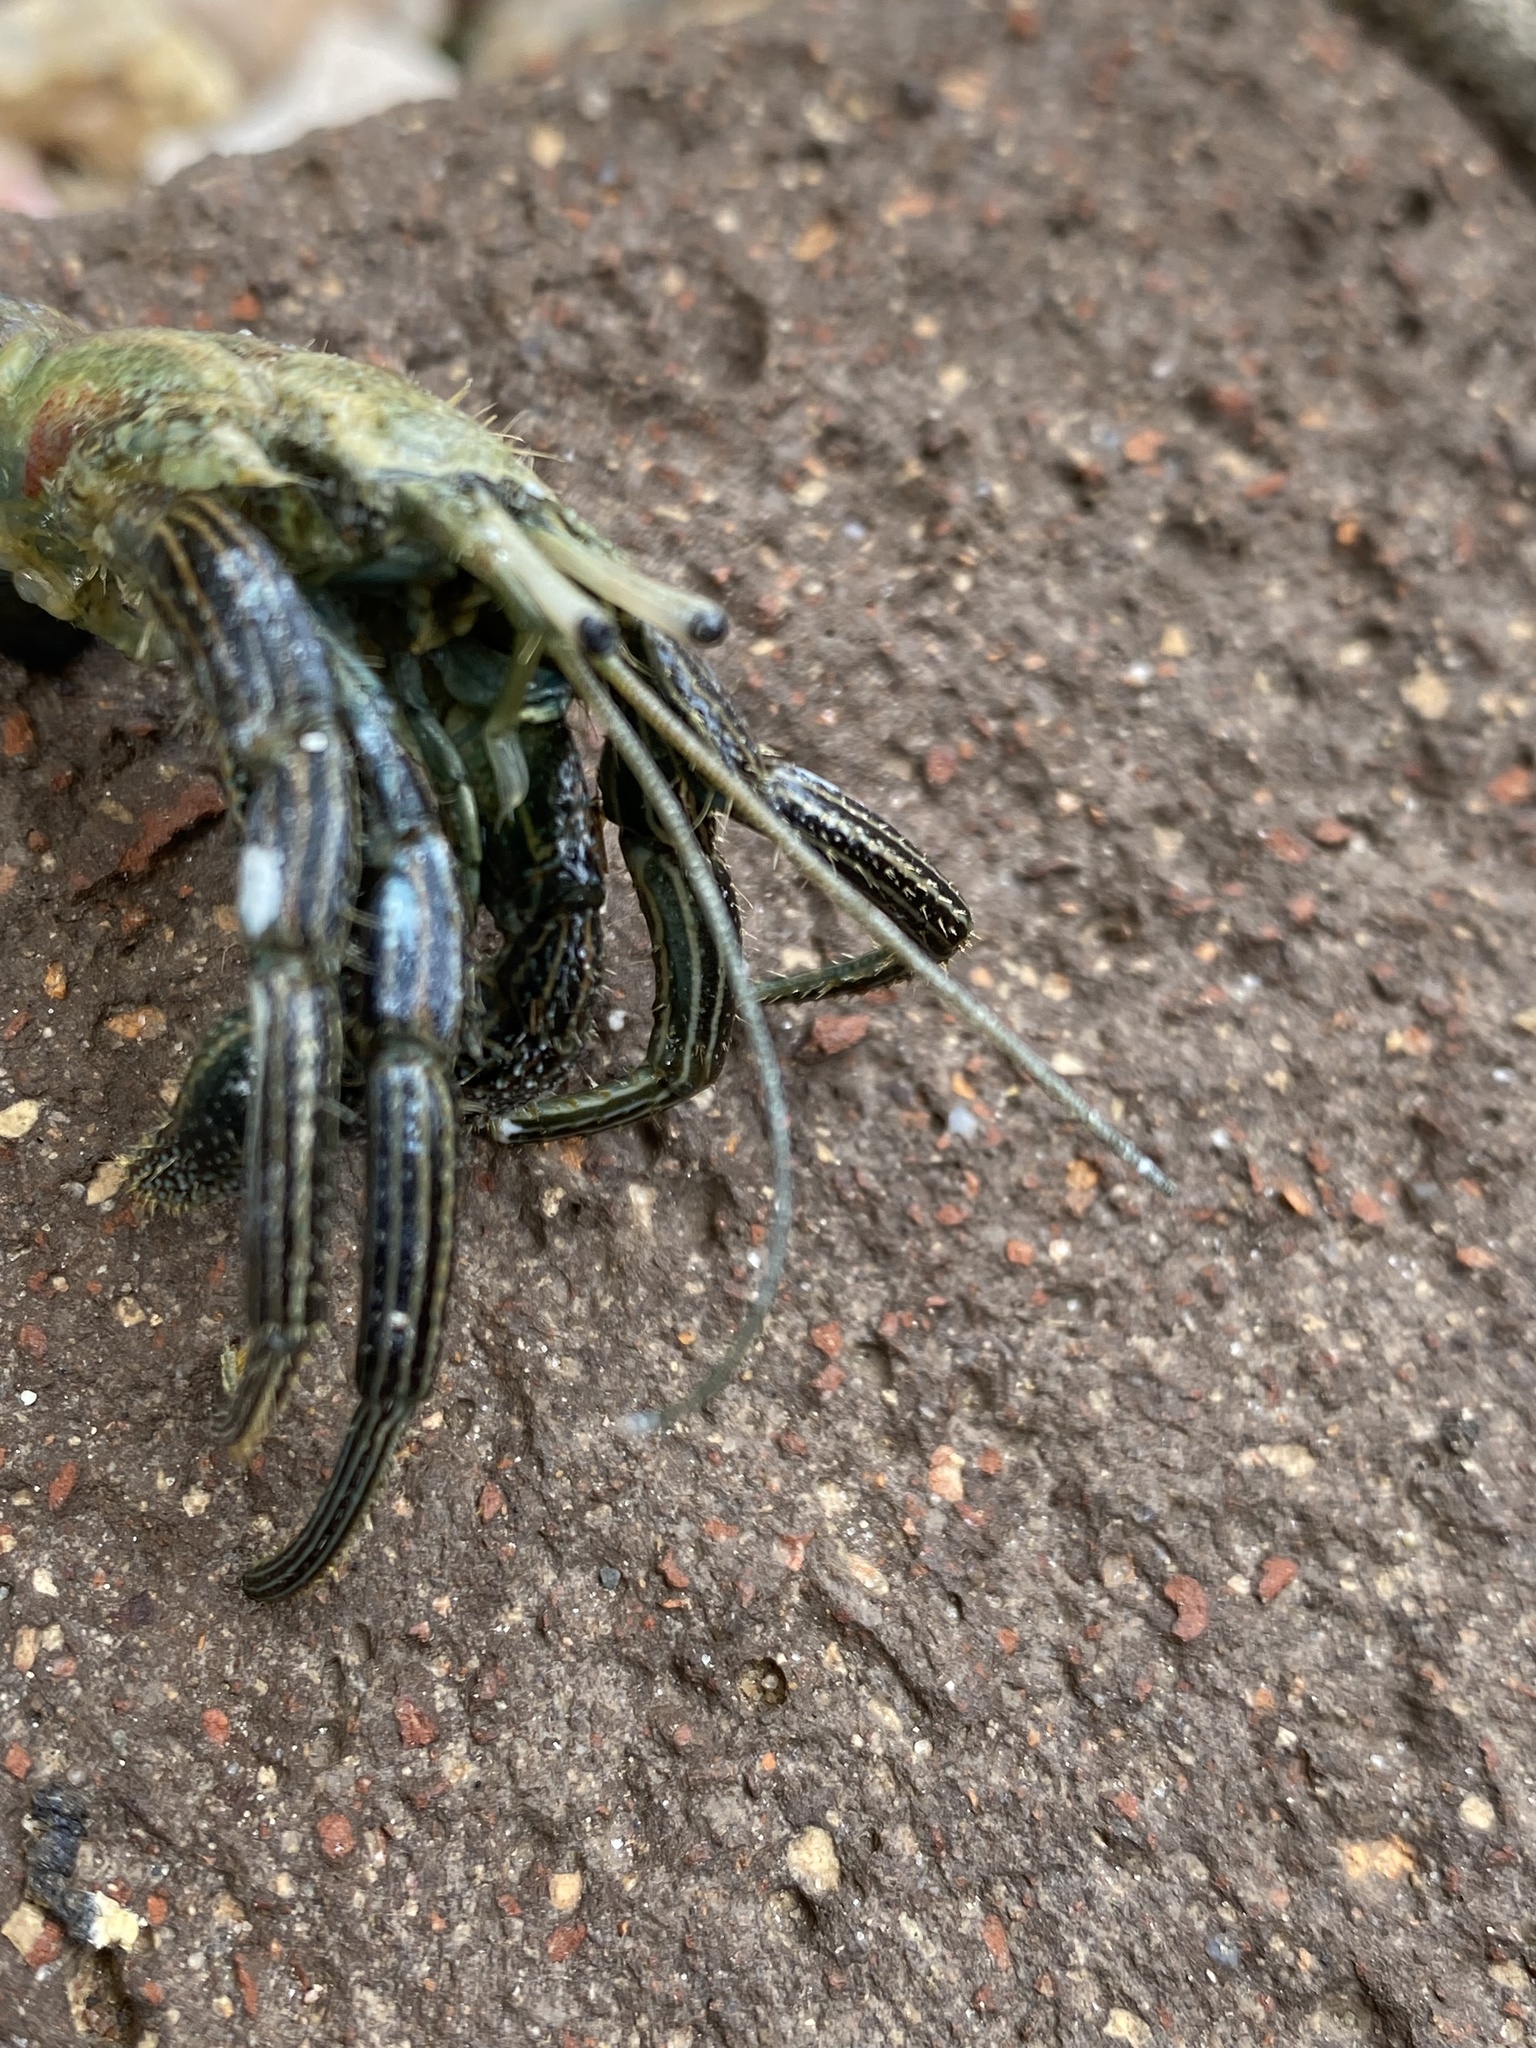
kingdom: Animalia
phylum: Arthropoda
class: Malacostraca
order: Decapoda
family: Diogenidae
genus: Clibanarius
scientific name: Clibanarius lineatus
